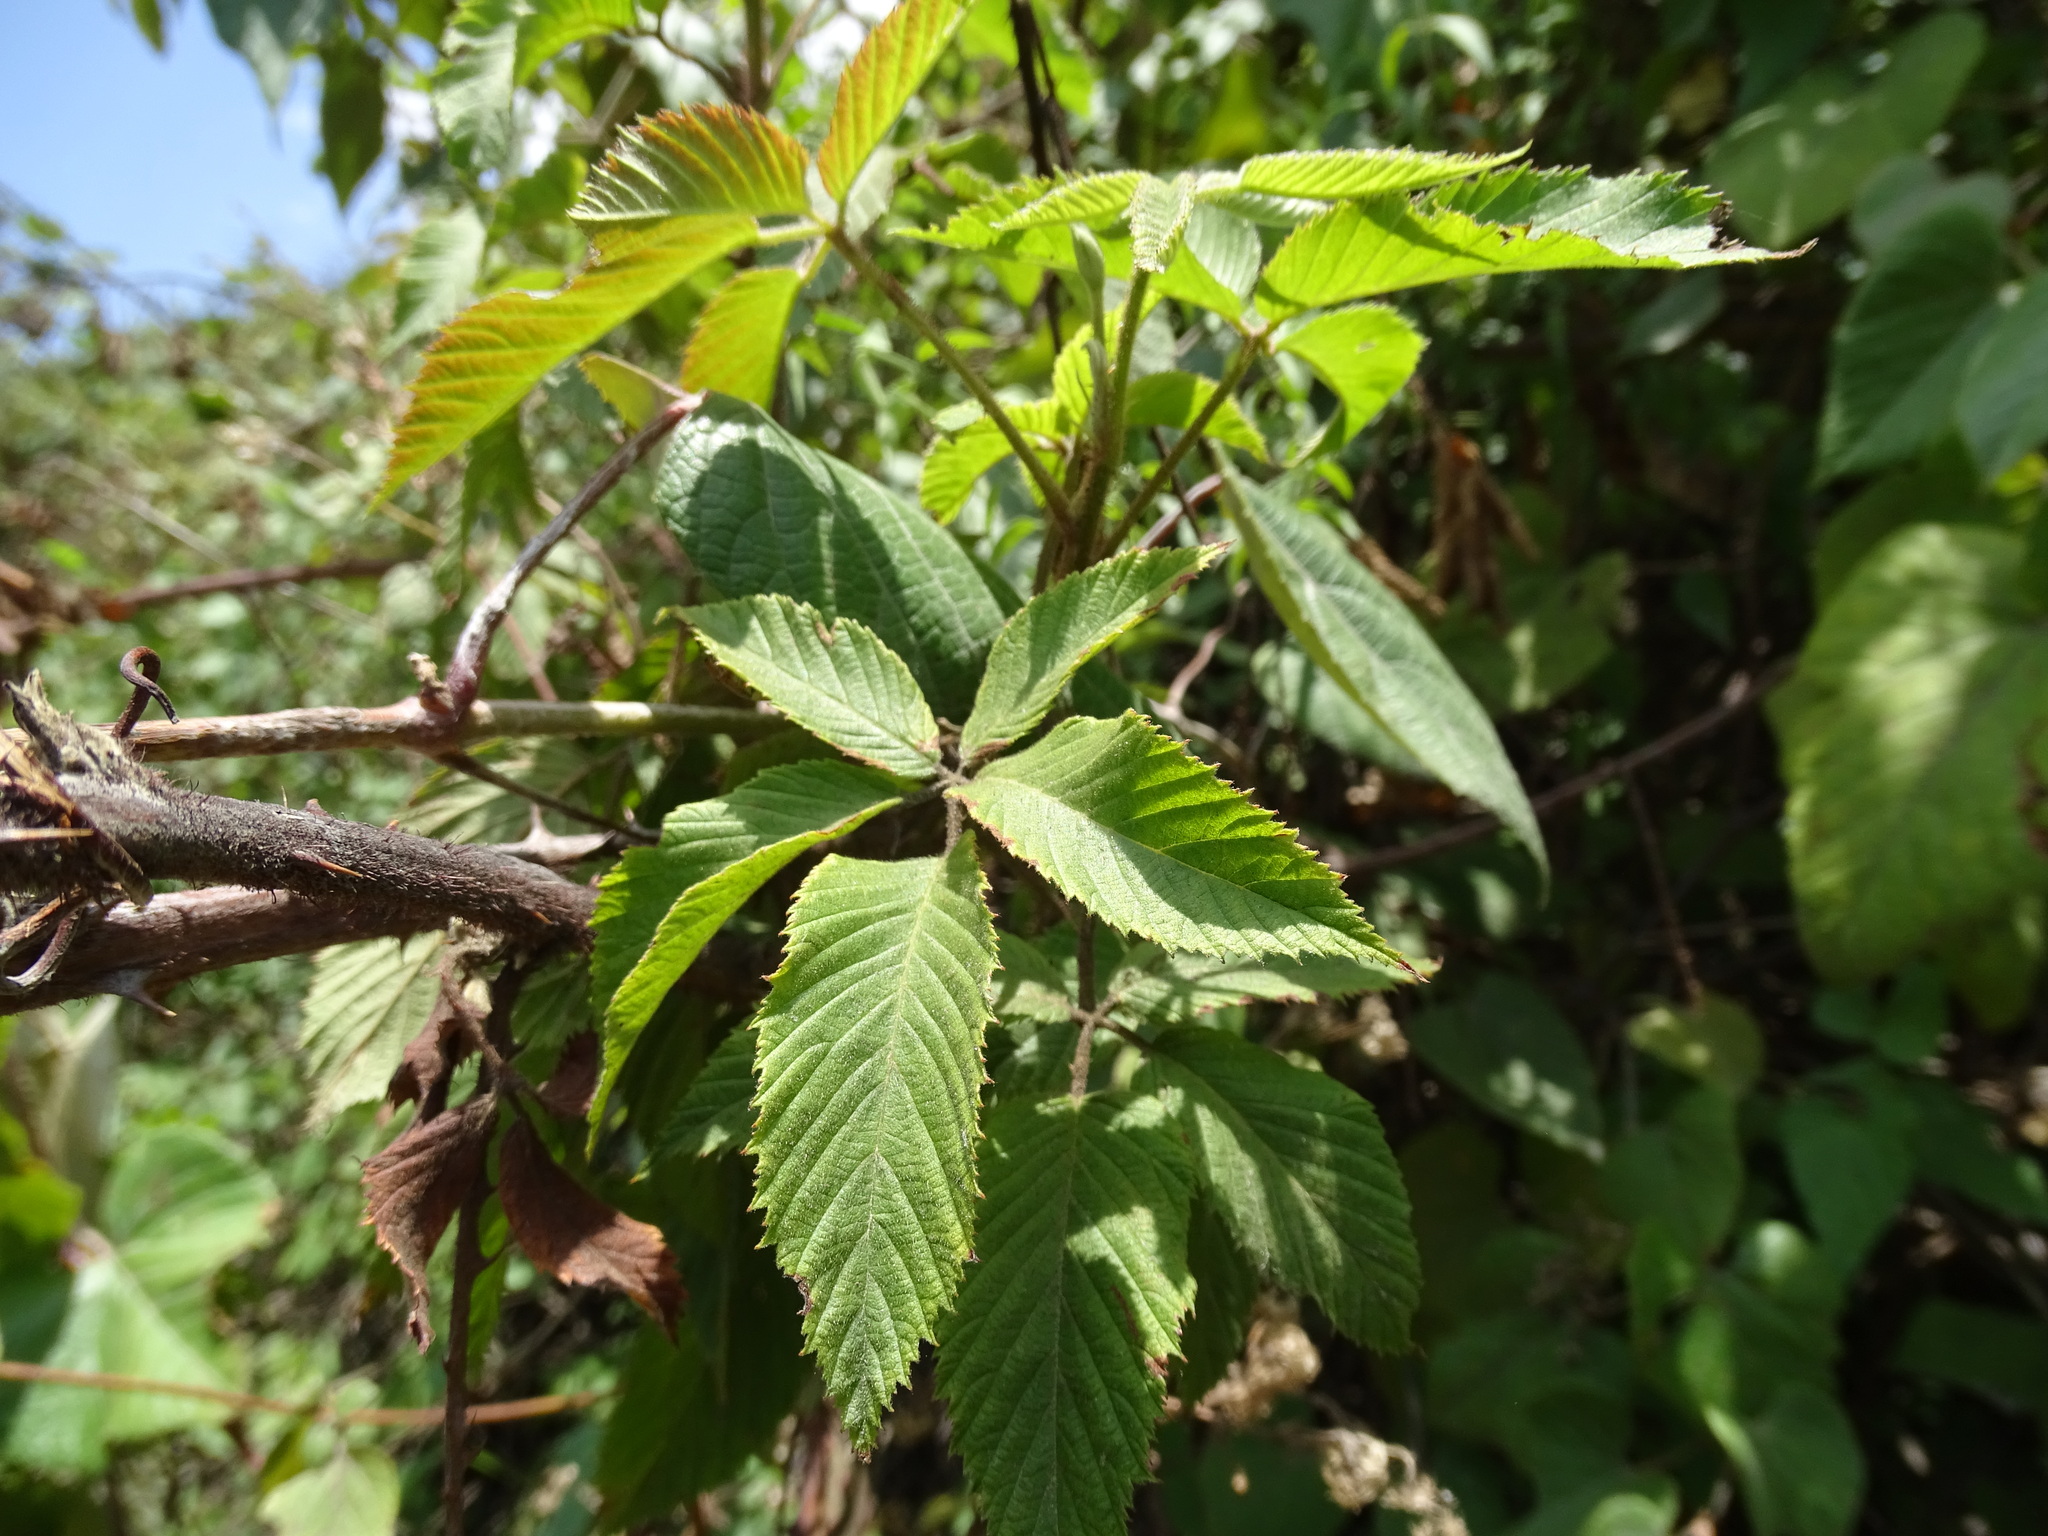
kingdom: Plantae
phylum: Tracheophyta
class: Magnoliopsida
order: Rosales
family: Rosaceae
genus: Rubus
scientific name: Rubus adenotrichos
